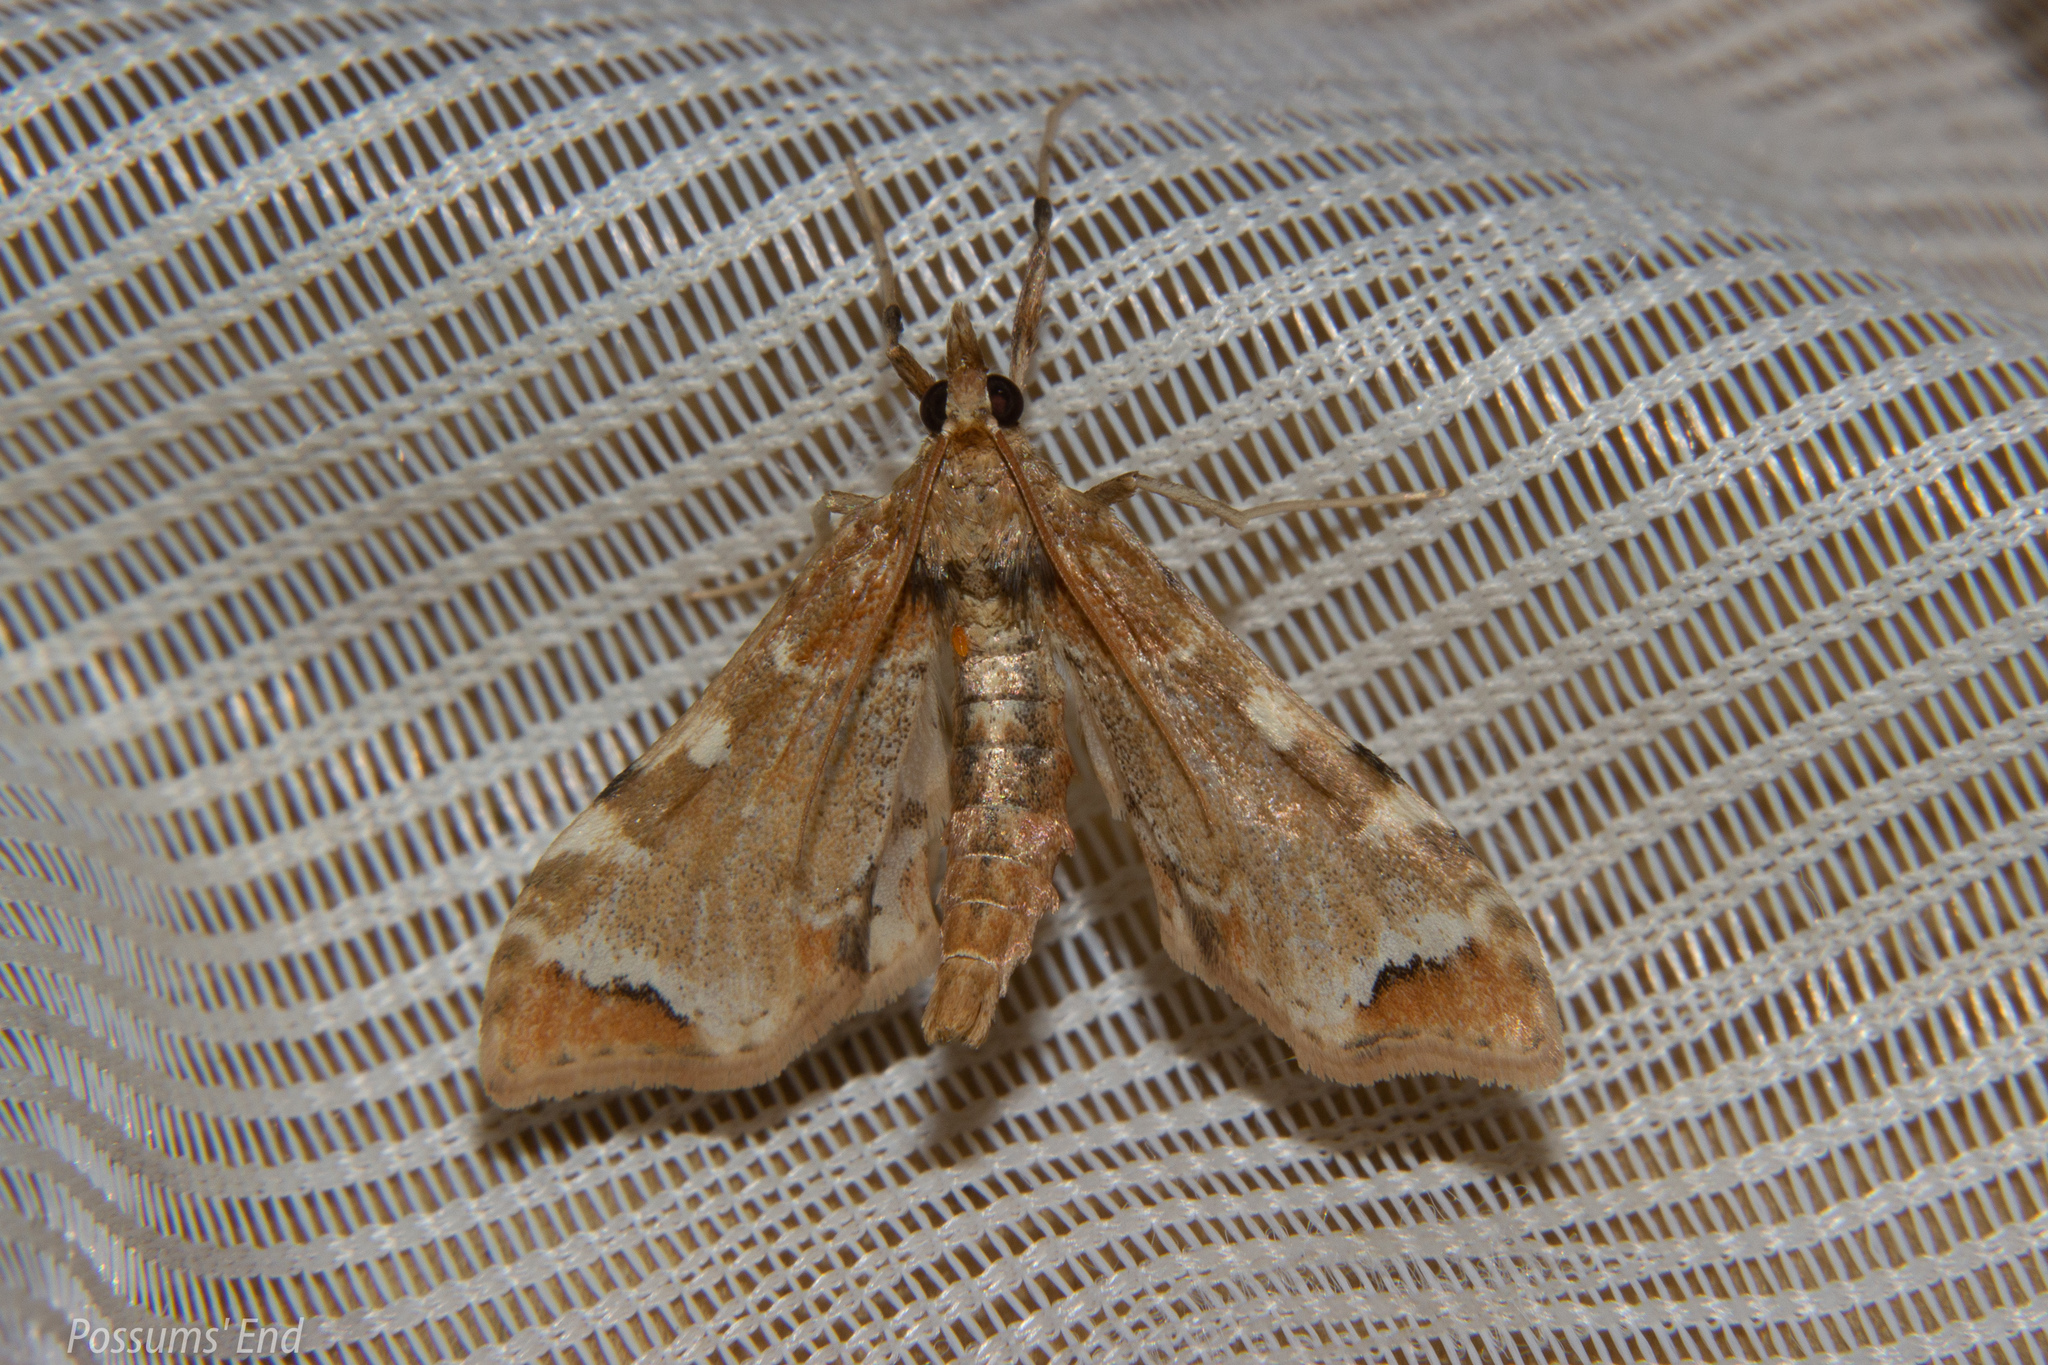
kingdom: Animalia
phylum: Arthropoda
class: Insecta
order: Lepidoptera
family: Crambidae
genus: Sceliodes
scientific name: Sceliodes cordalis
